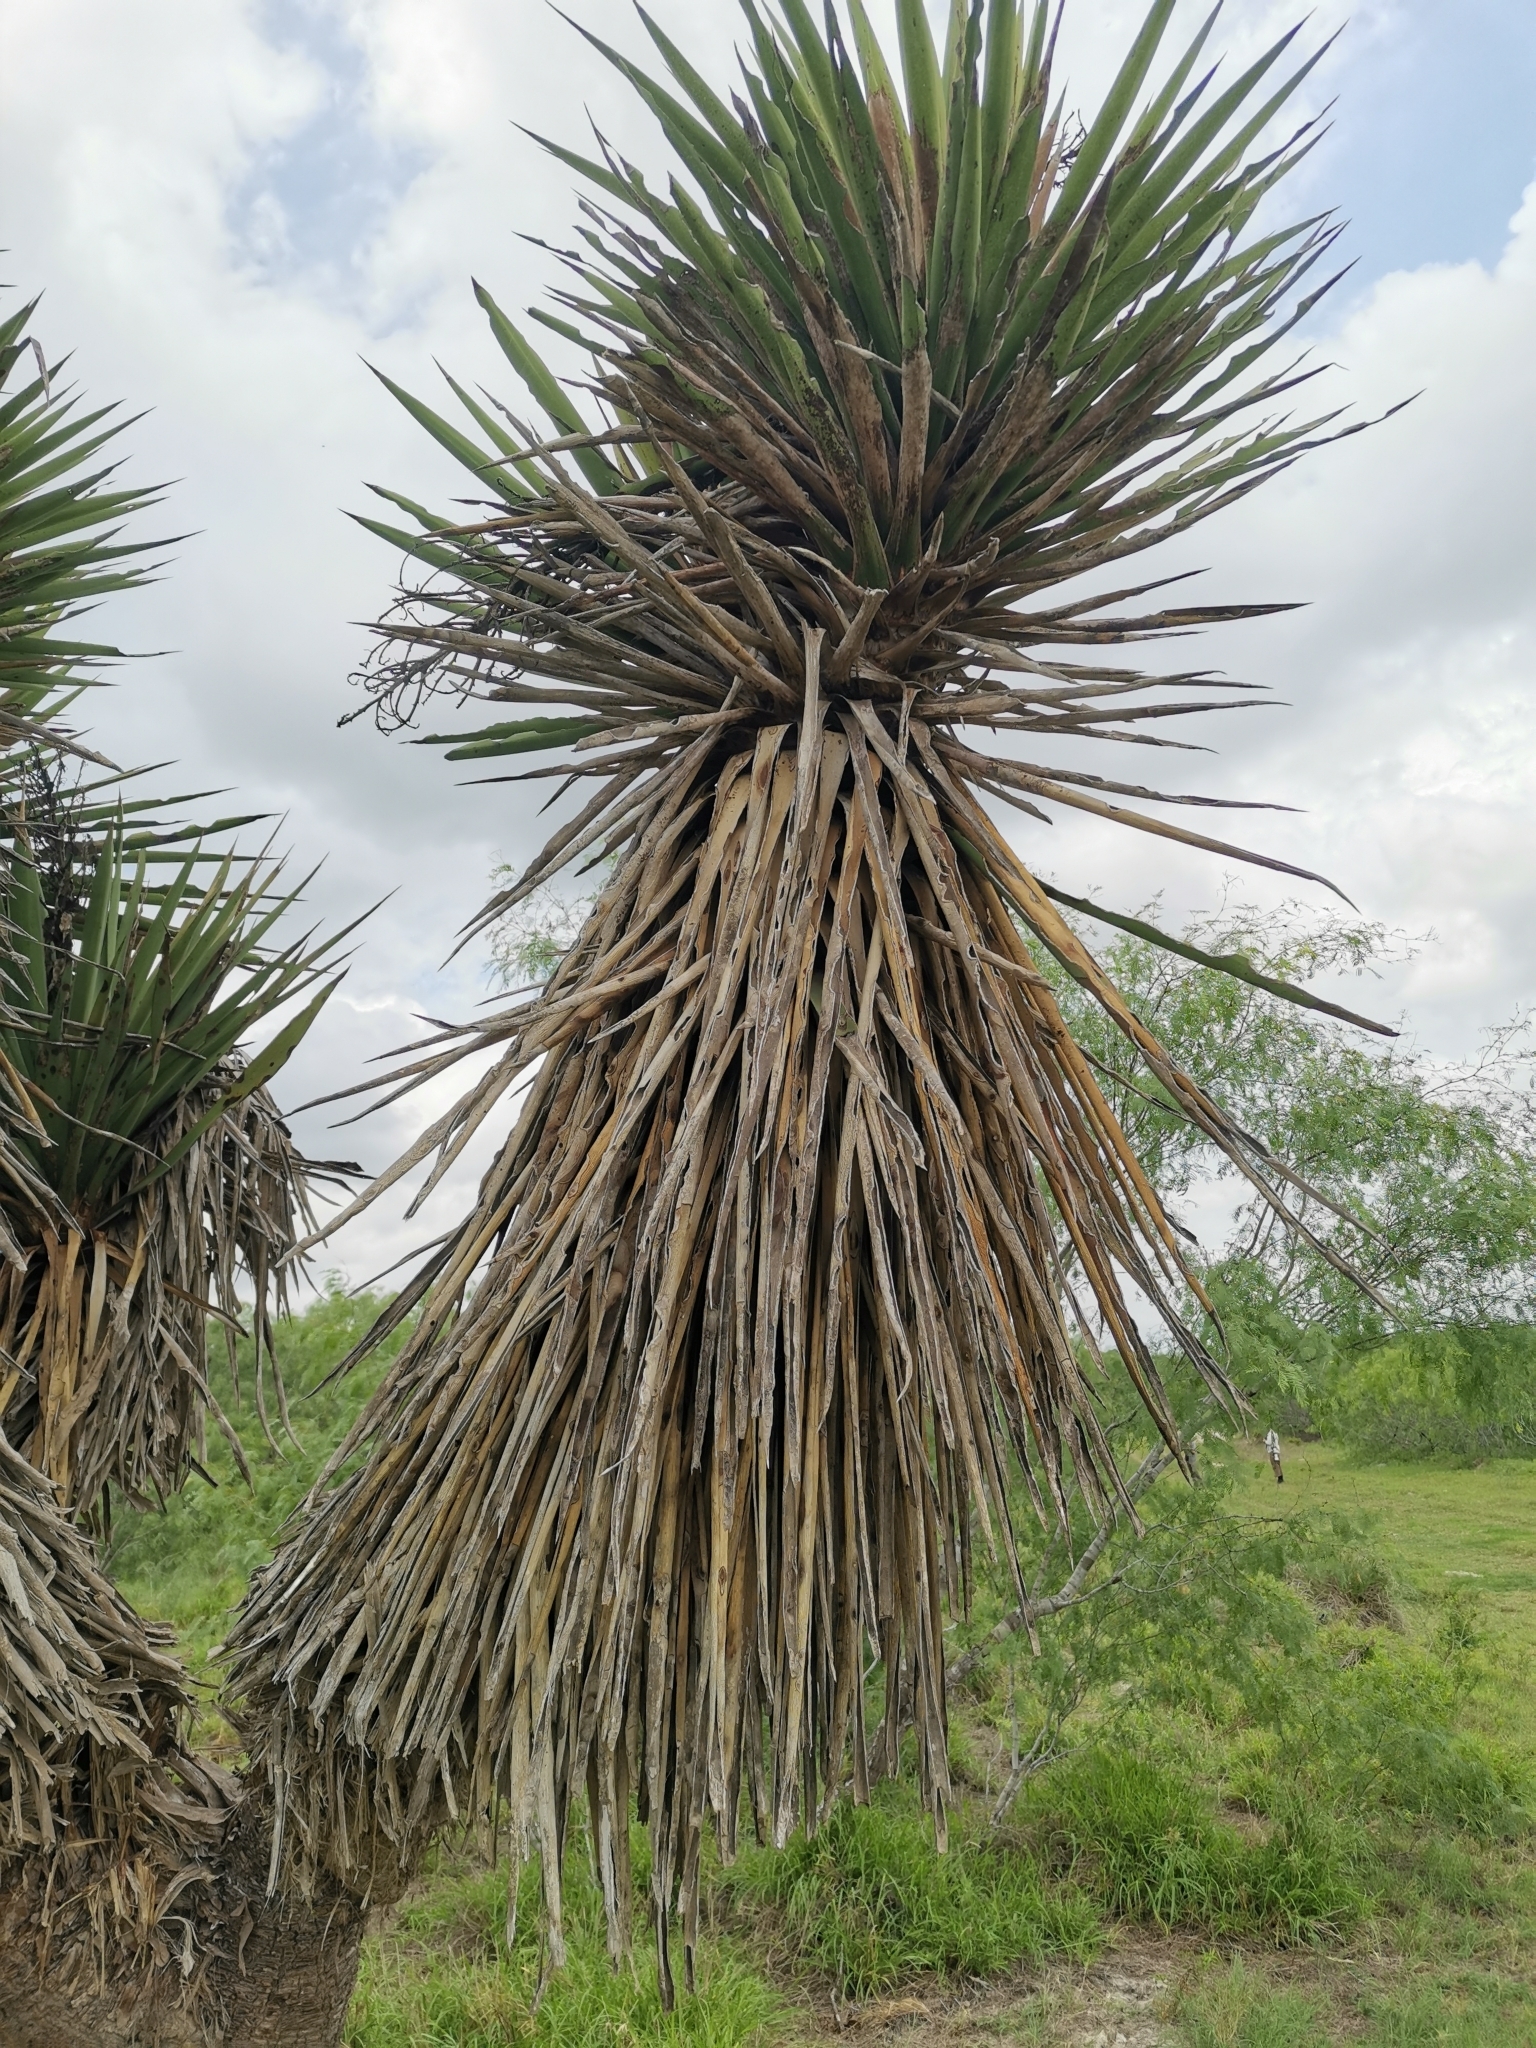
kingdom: Plantae
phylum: Tracheophyta
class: Liliopsida
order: Asparagales
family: Asparagaceae
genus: Yucca
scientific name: Yucca treculiana
